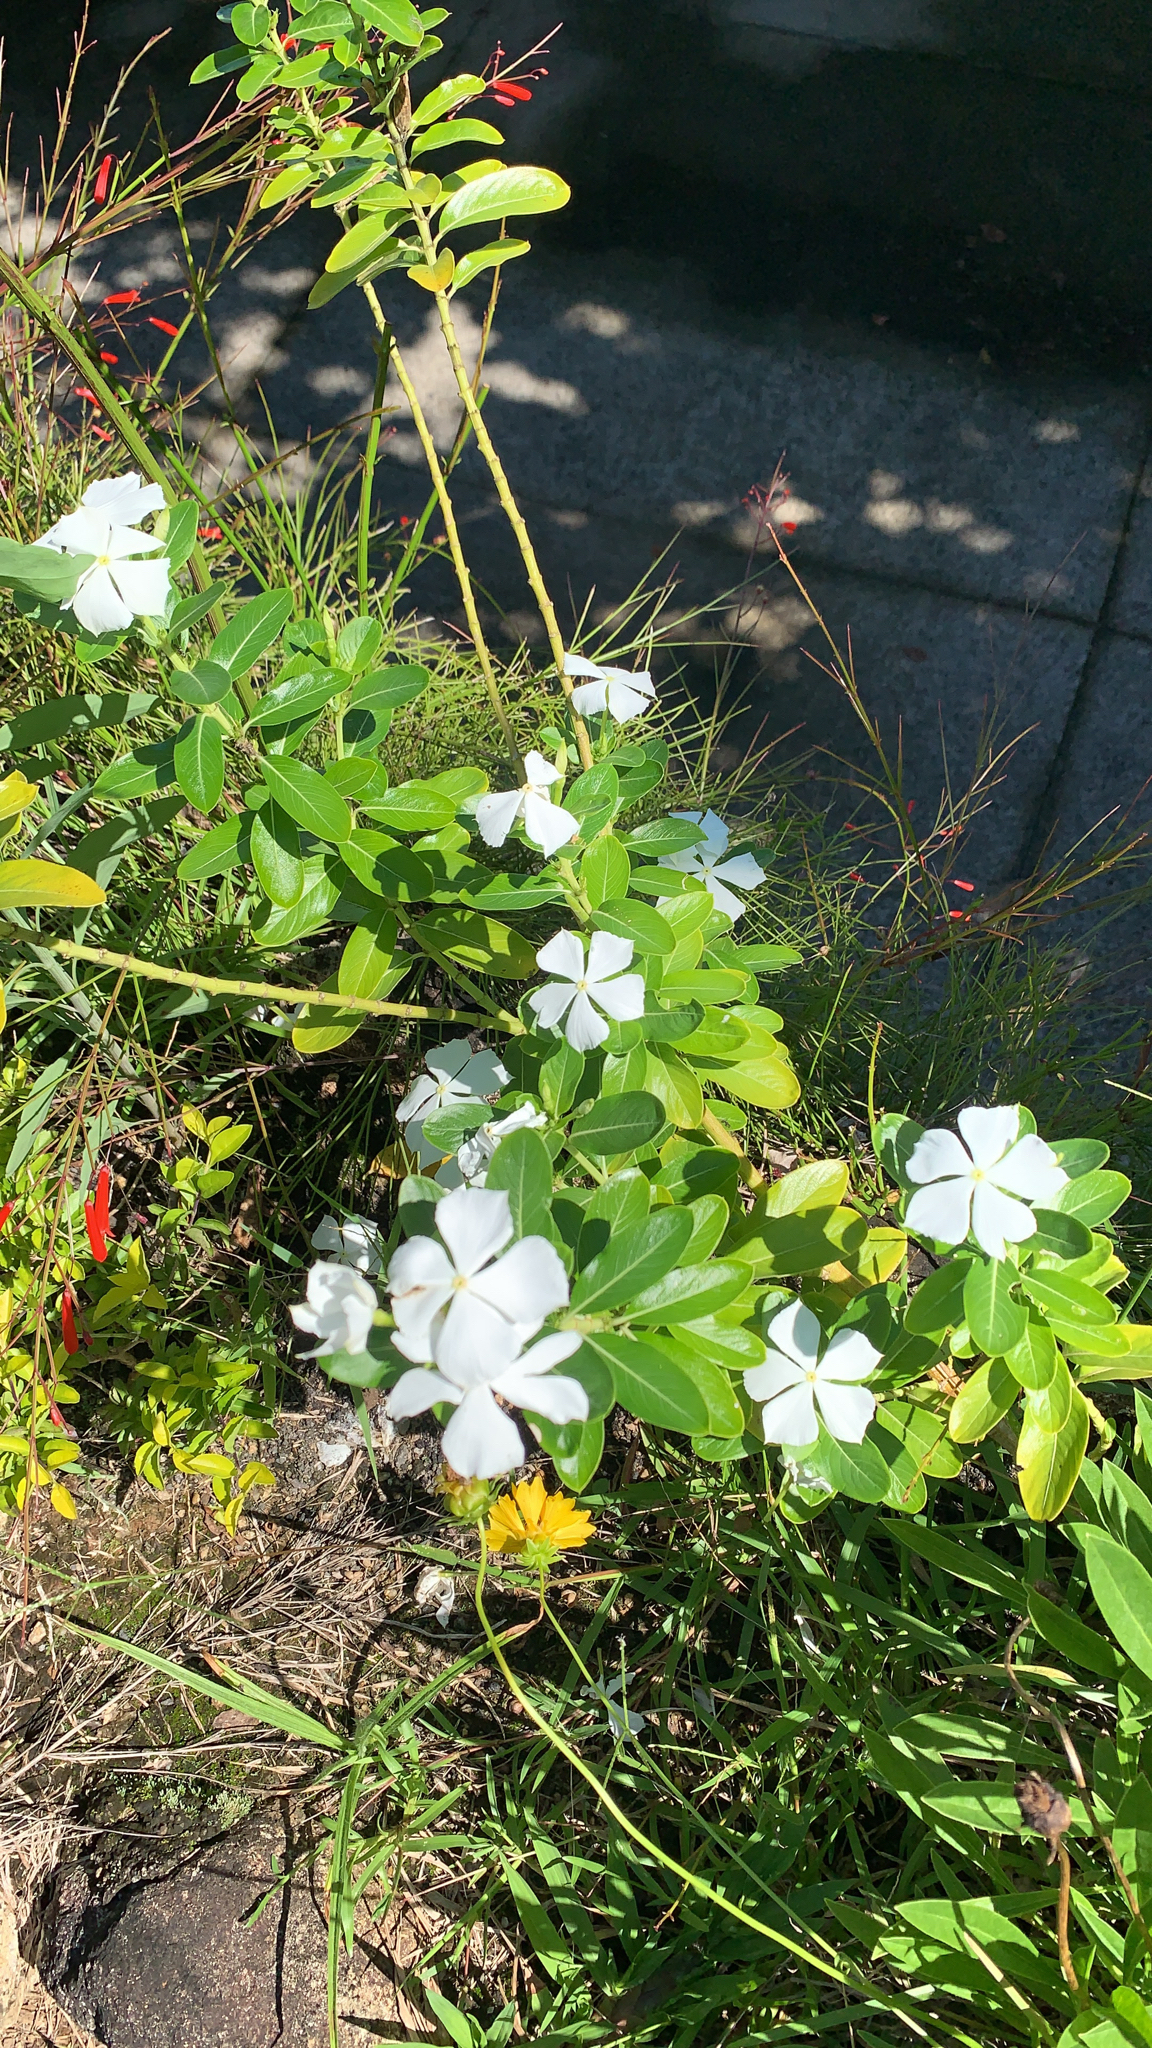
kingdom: Plantae
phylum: Tracheophyta
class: Magnoliopsida
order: Gentianales
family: Apocynaceae
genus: Catharanthus
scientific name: Catharanthus roseus
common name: Madagascar periwinkle
